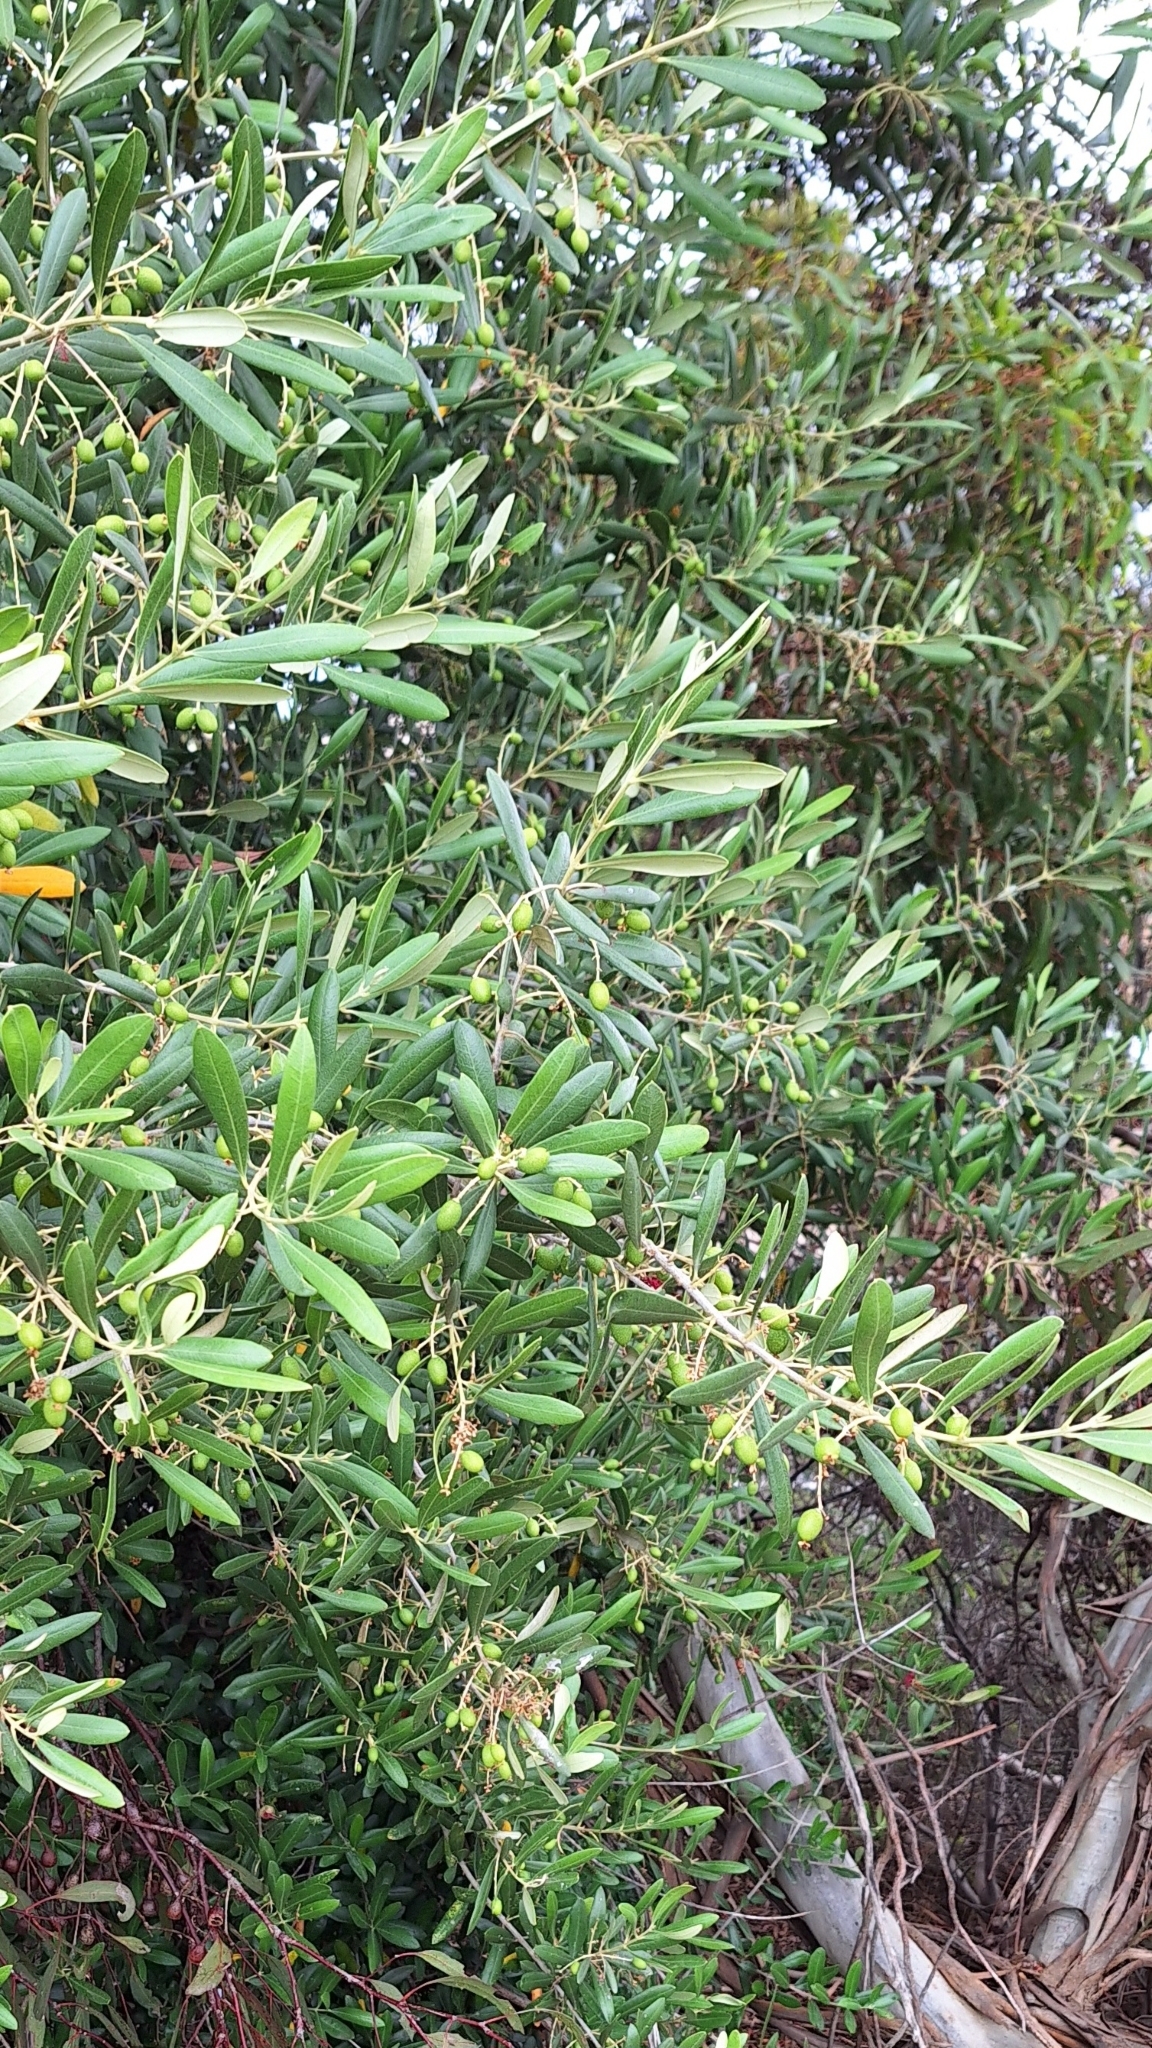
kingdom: Plantae
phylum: Tracheophyta
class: Magnoliopsida
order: Lamiales
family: Oleaceae
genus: Olea
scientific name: Olea europaea
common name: Olive
